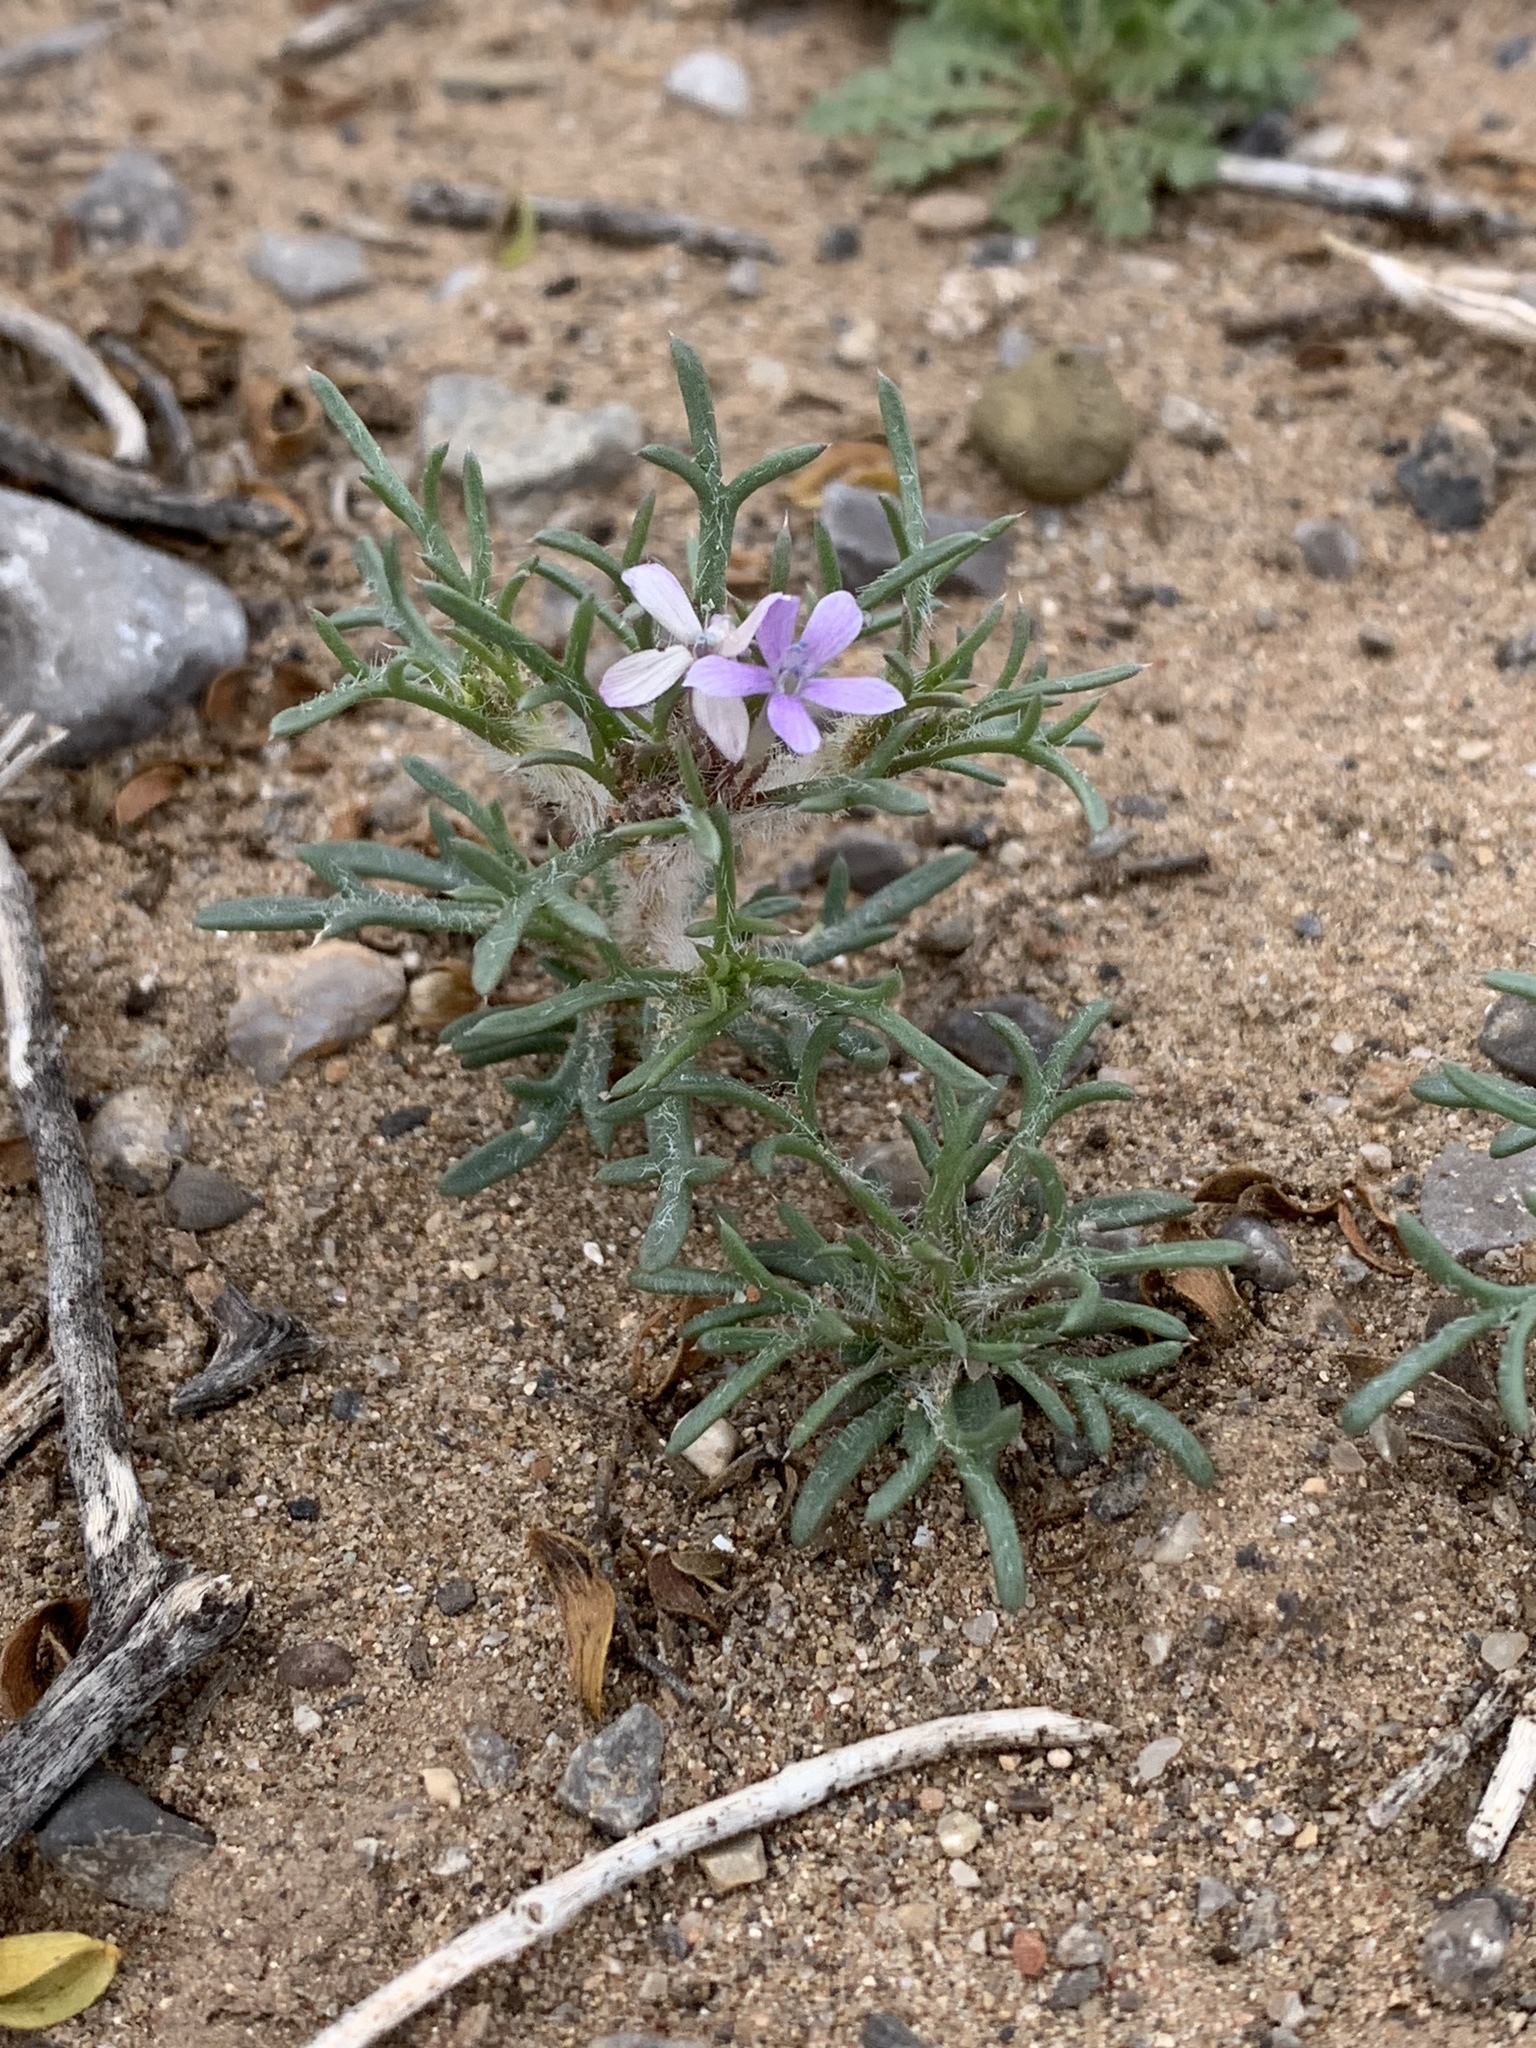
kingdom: Plantae
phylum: Tracheophyta
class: Magnoliopsida
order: Ericales
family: Polemoniaceae
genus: Ipomopsis
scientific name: Ipomopsis pumila
